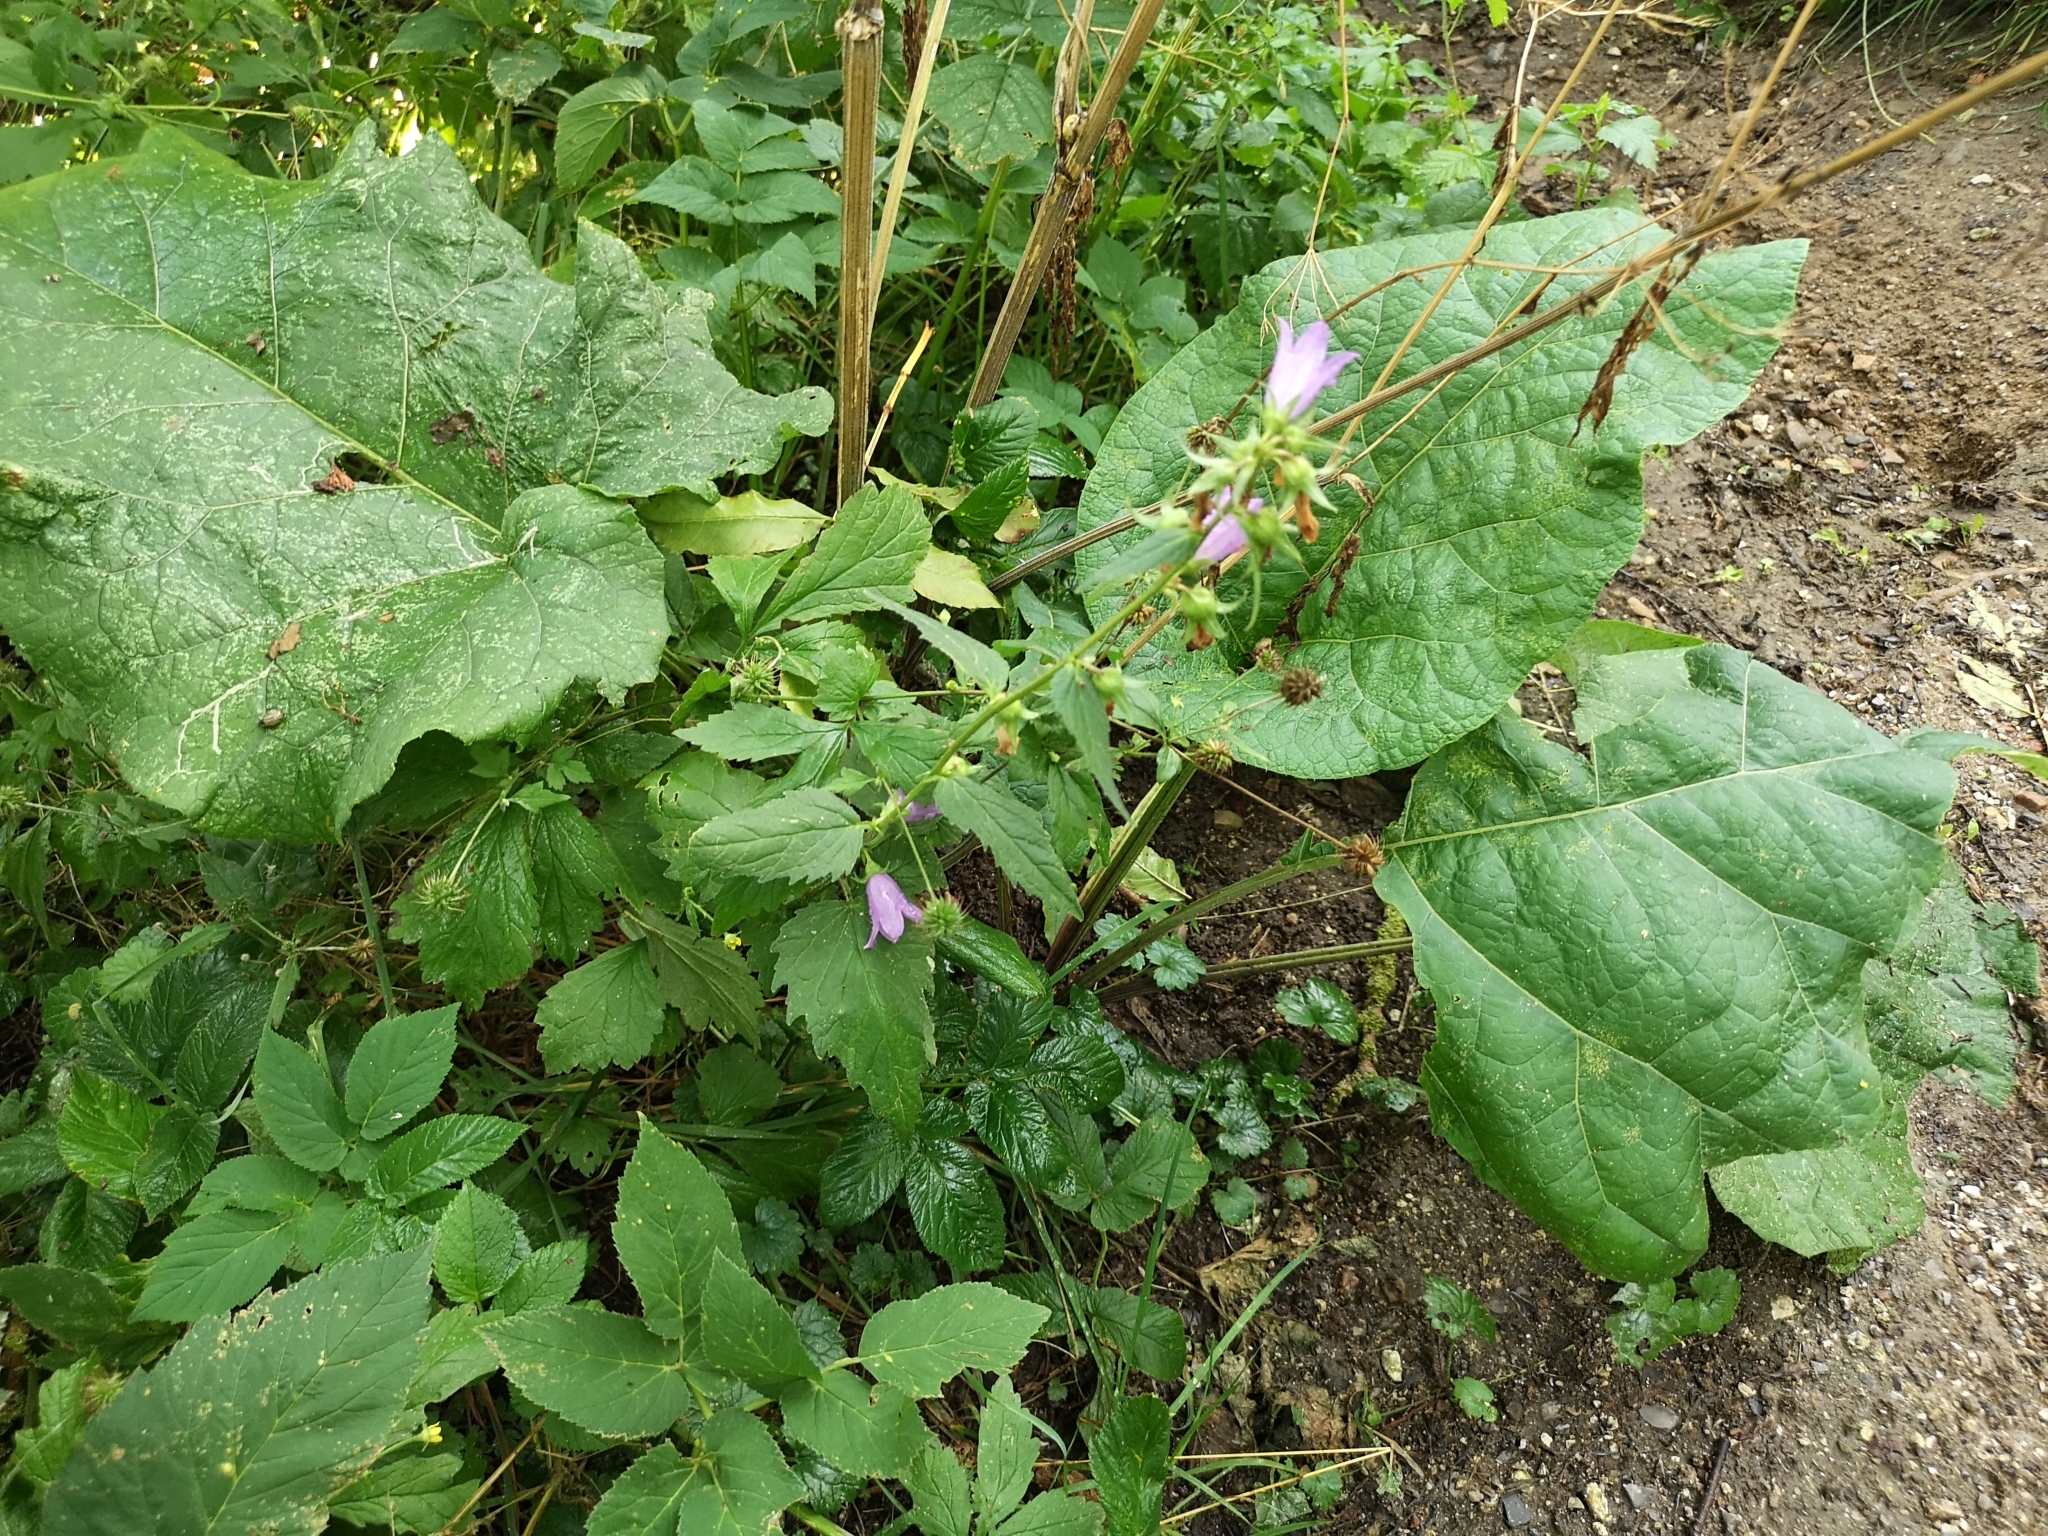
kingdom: Plantae
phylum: Tracheophyta
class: Magnoliopsida
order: Asterales
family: Campanulaceae
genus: Campanula
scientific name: Campanula trachelium
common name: Nettle-leaved bellflower
